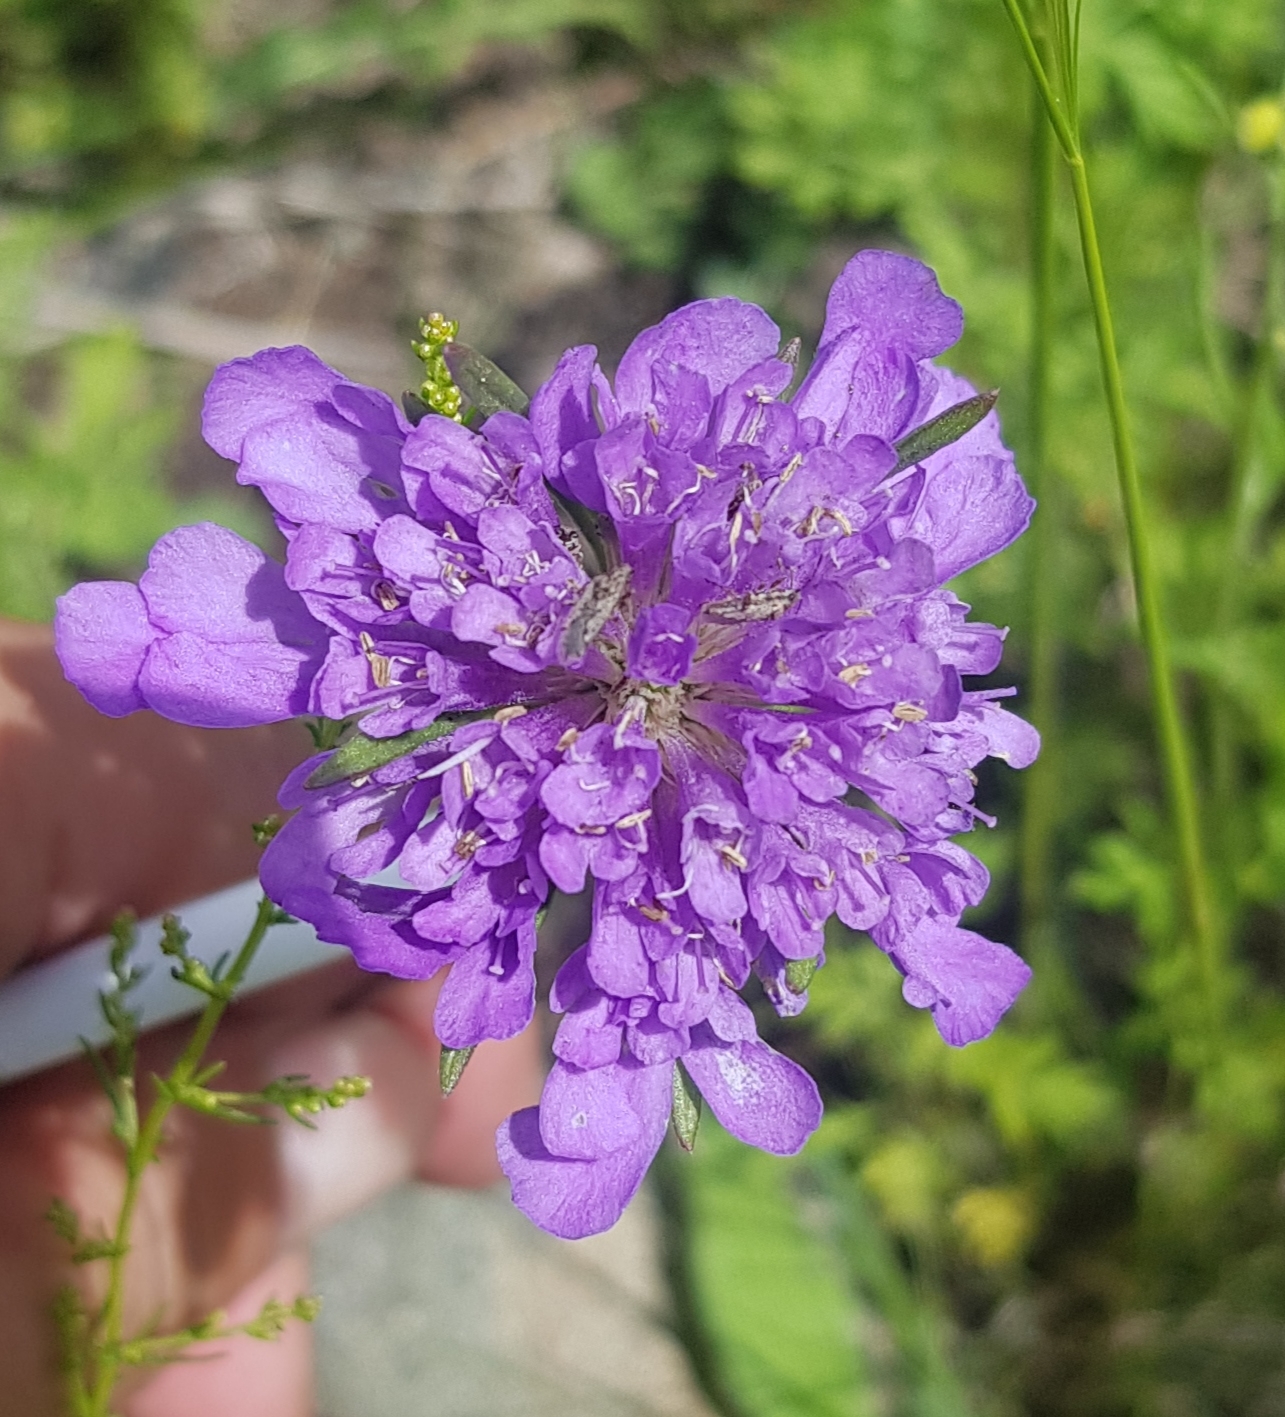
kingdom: Plantae
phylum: Tracheophyta
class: Magnoliopsida
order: Dipsacales
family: Caprifoliaceae
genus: Scabiosa
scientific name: Scabiosa comosa
